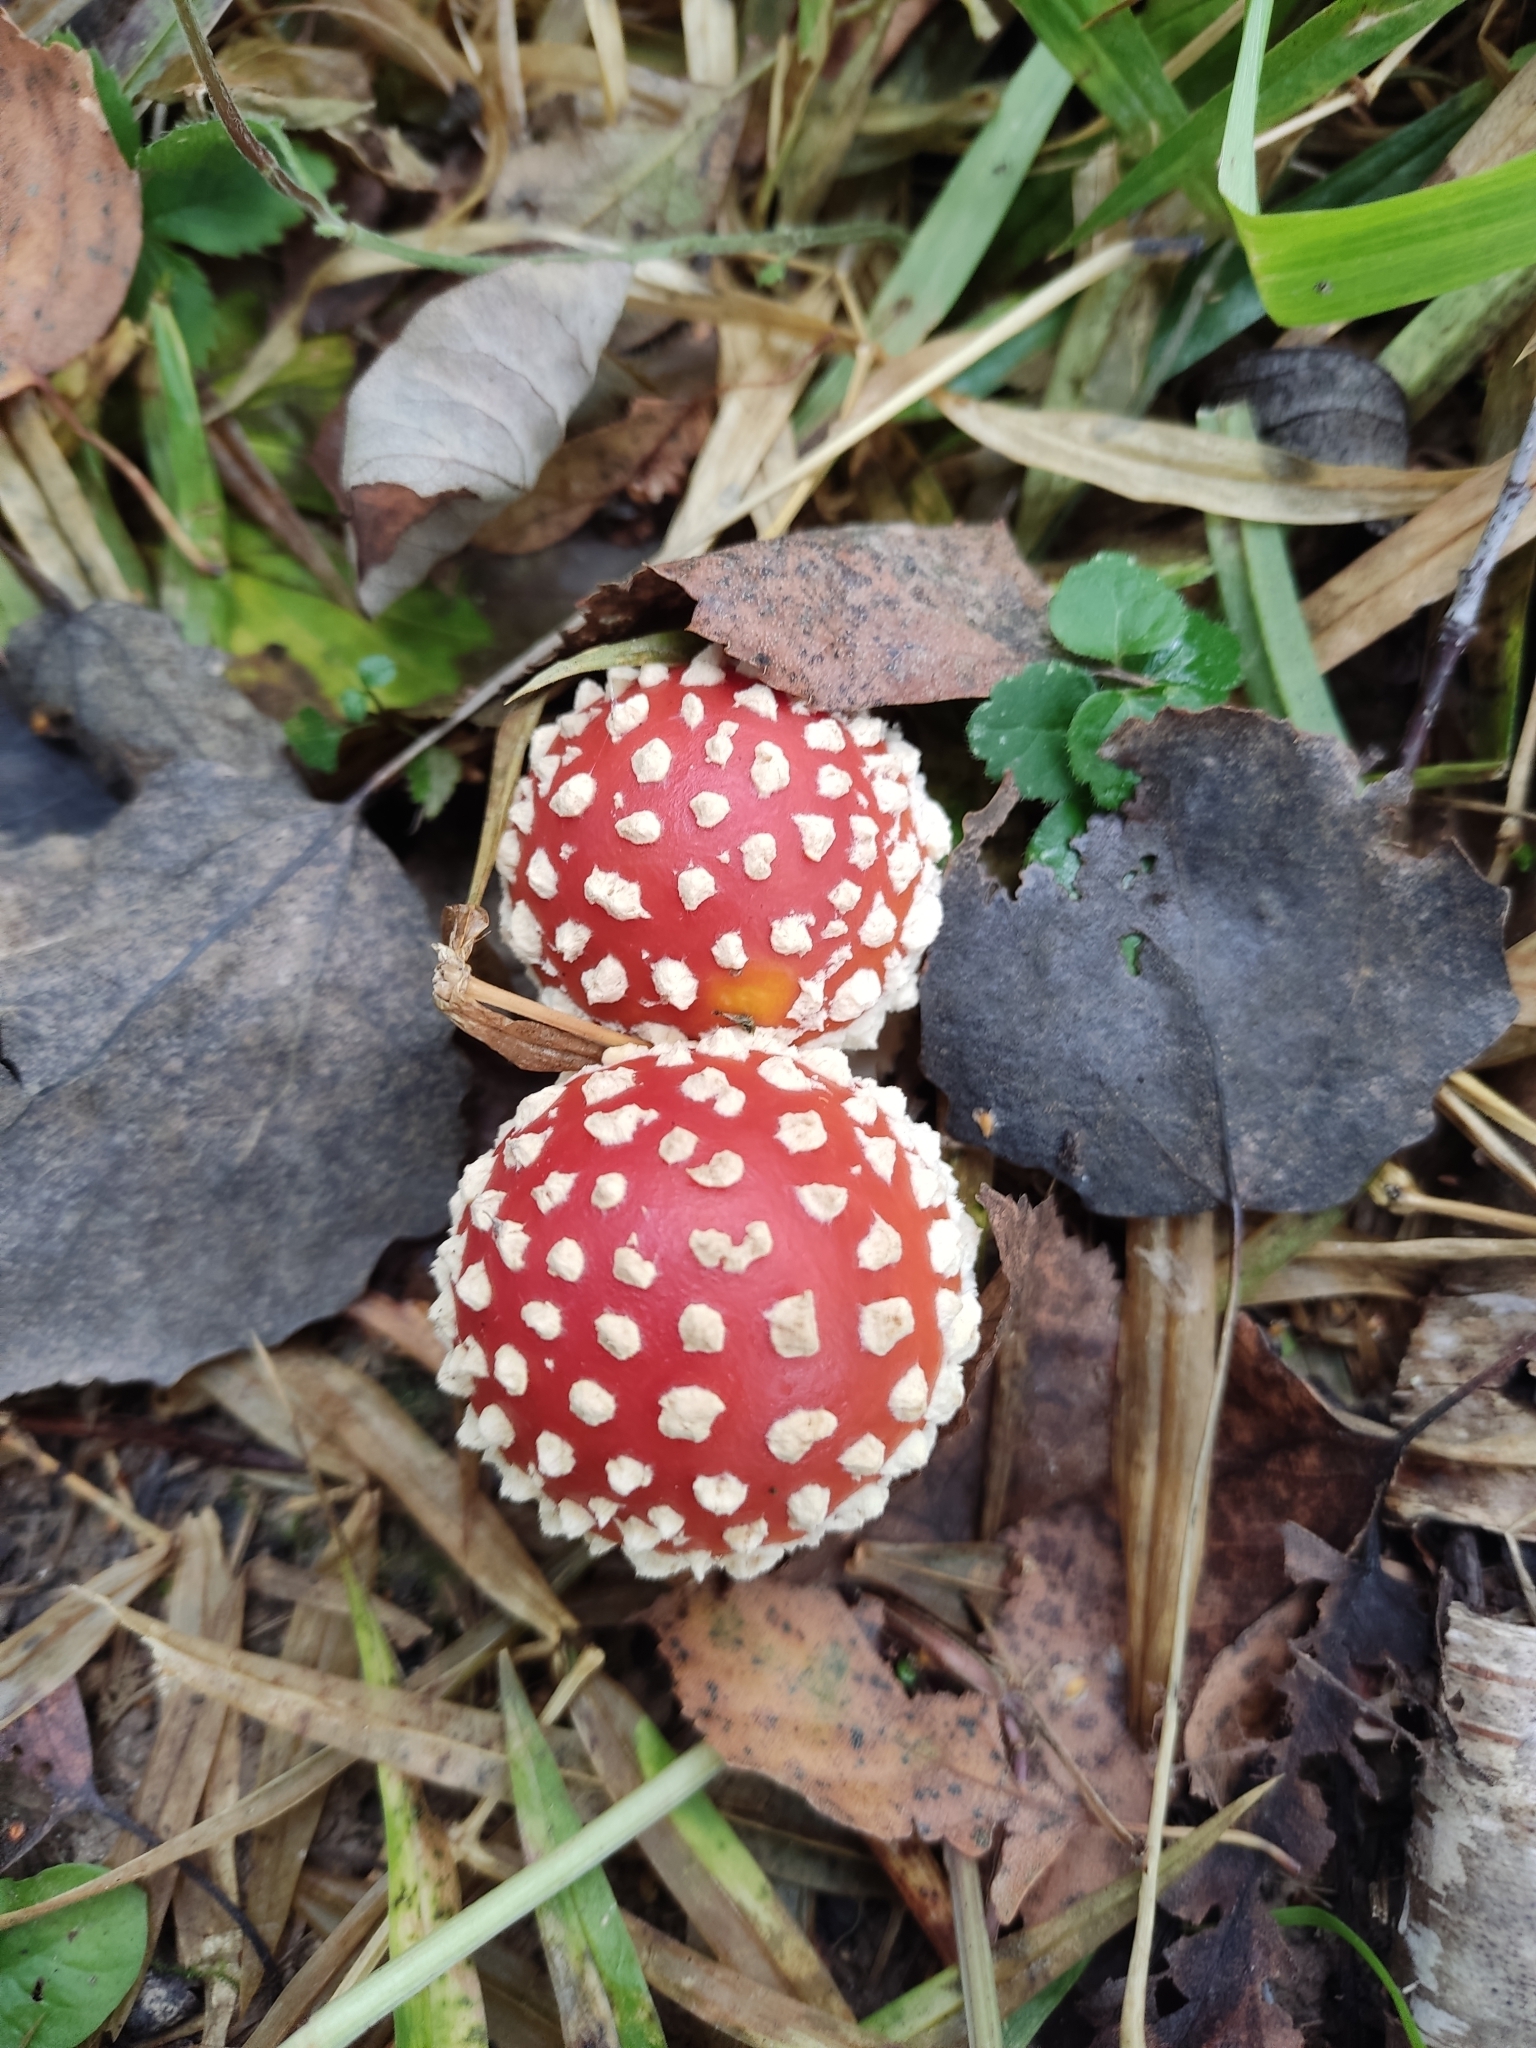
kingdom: Fungi
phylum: Basidiomycota
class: Agaricomycetes
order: Agaricales
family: Amanitaceae
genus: Amanita
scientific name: Amanita muscaria
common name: Fly agaric
